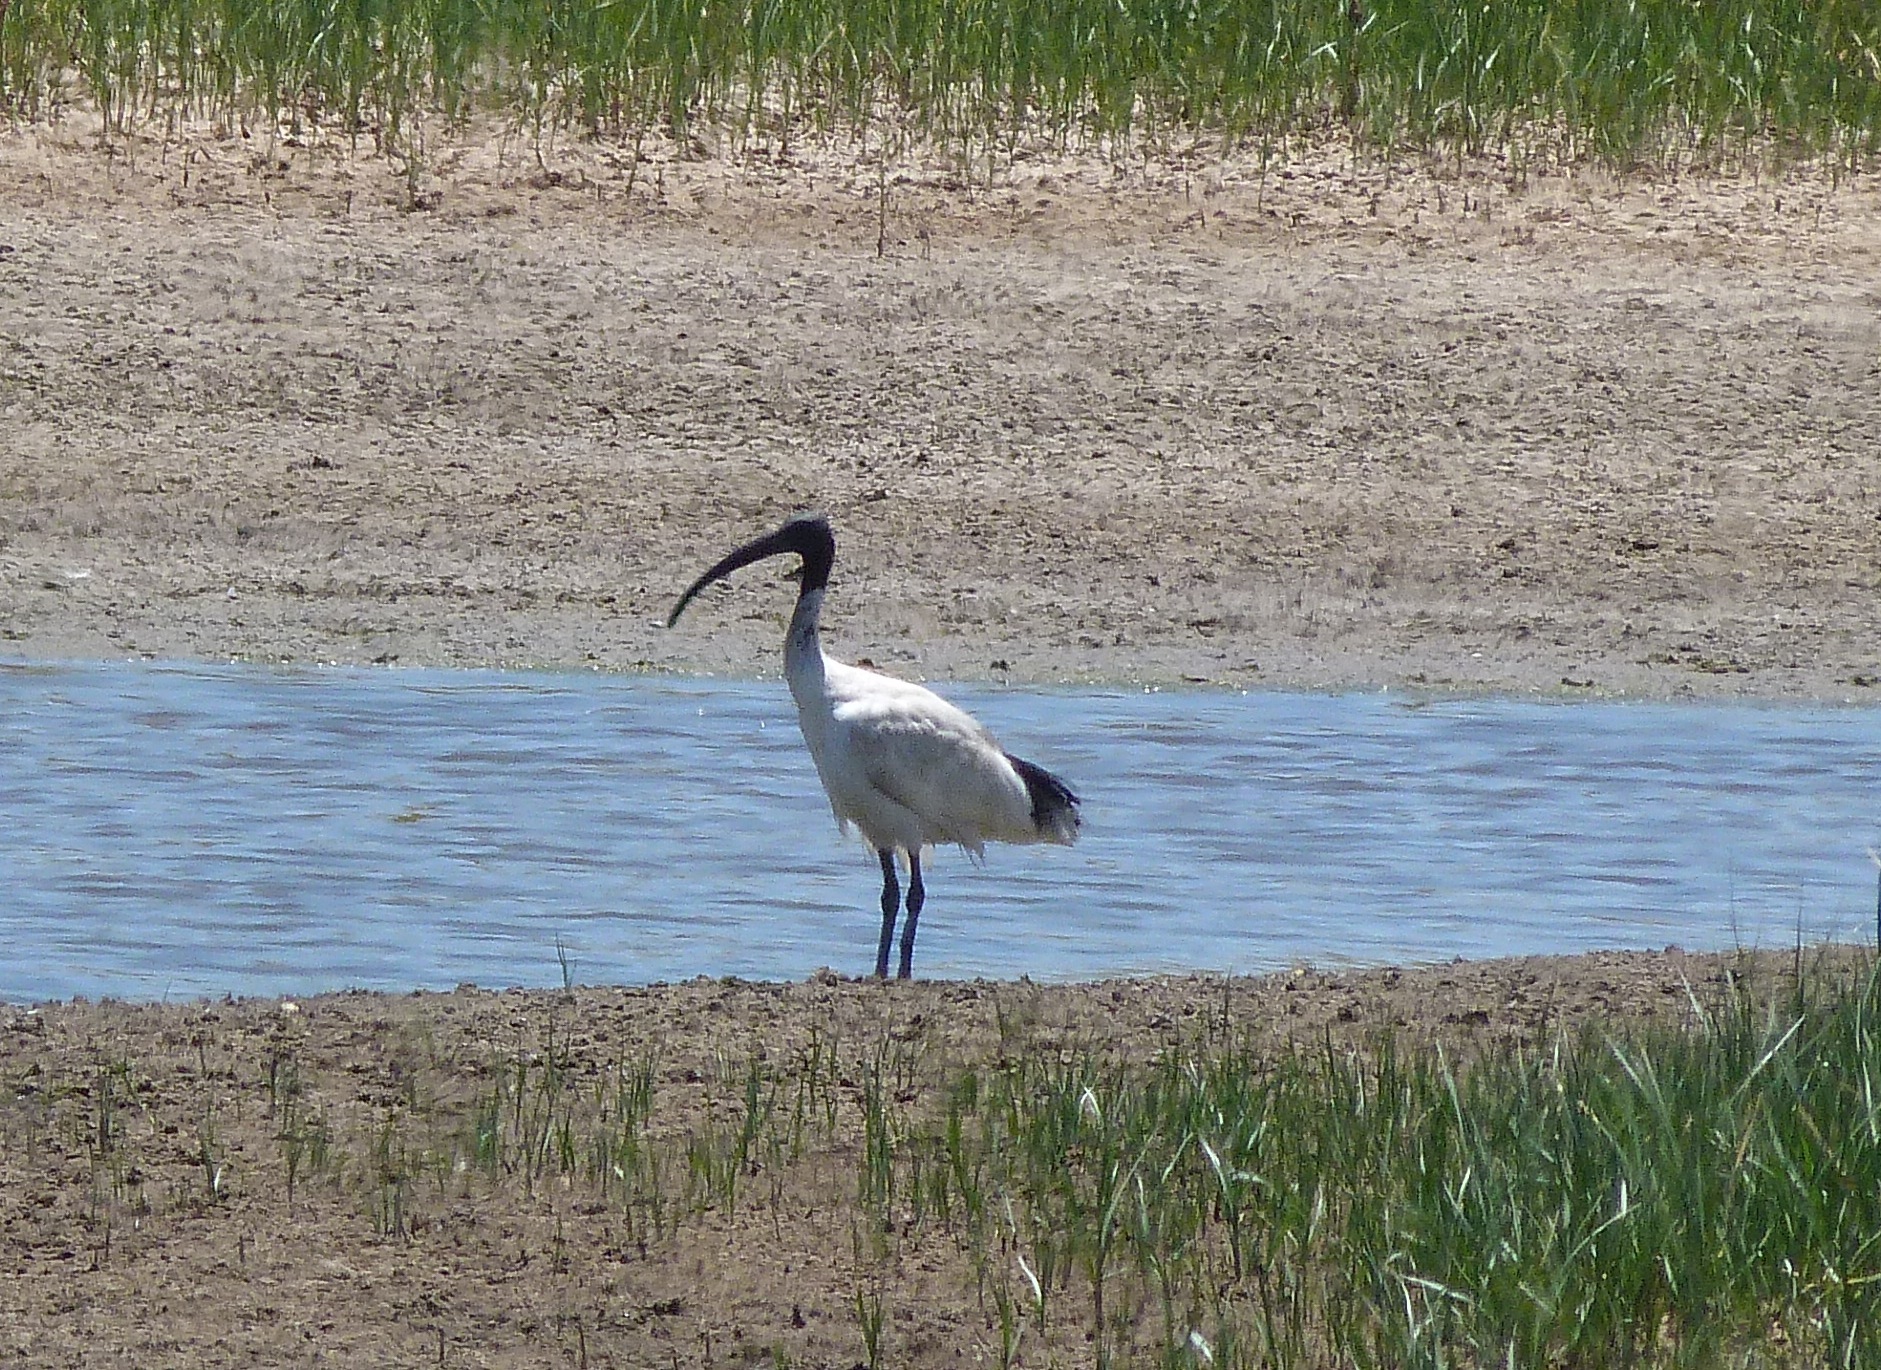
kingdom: Animalia
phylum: Chordata
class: Aves
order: Pelecaniformes
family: Threskiornithidae
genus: Threskiornis
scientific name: Threskiornis molucca
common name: Australian white ibis
